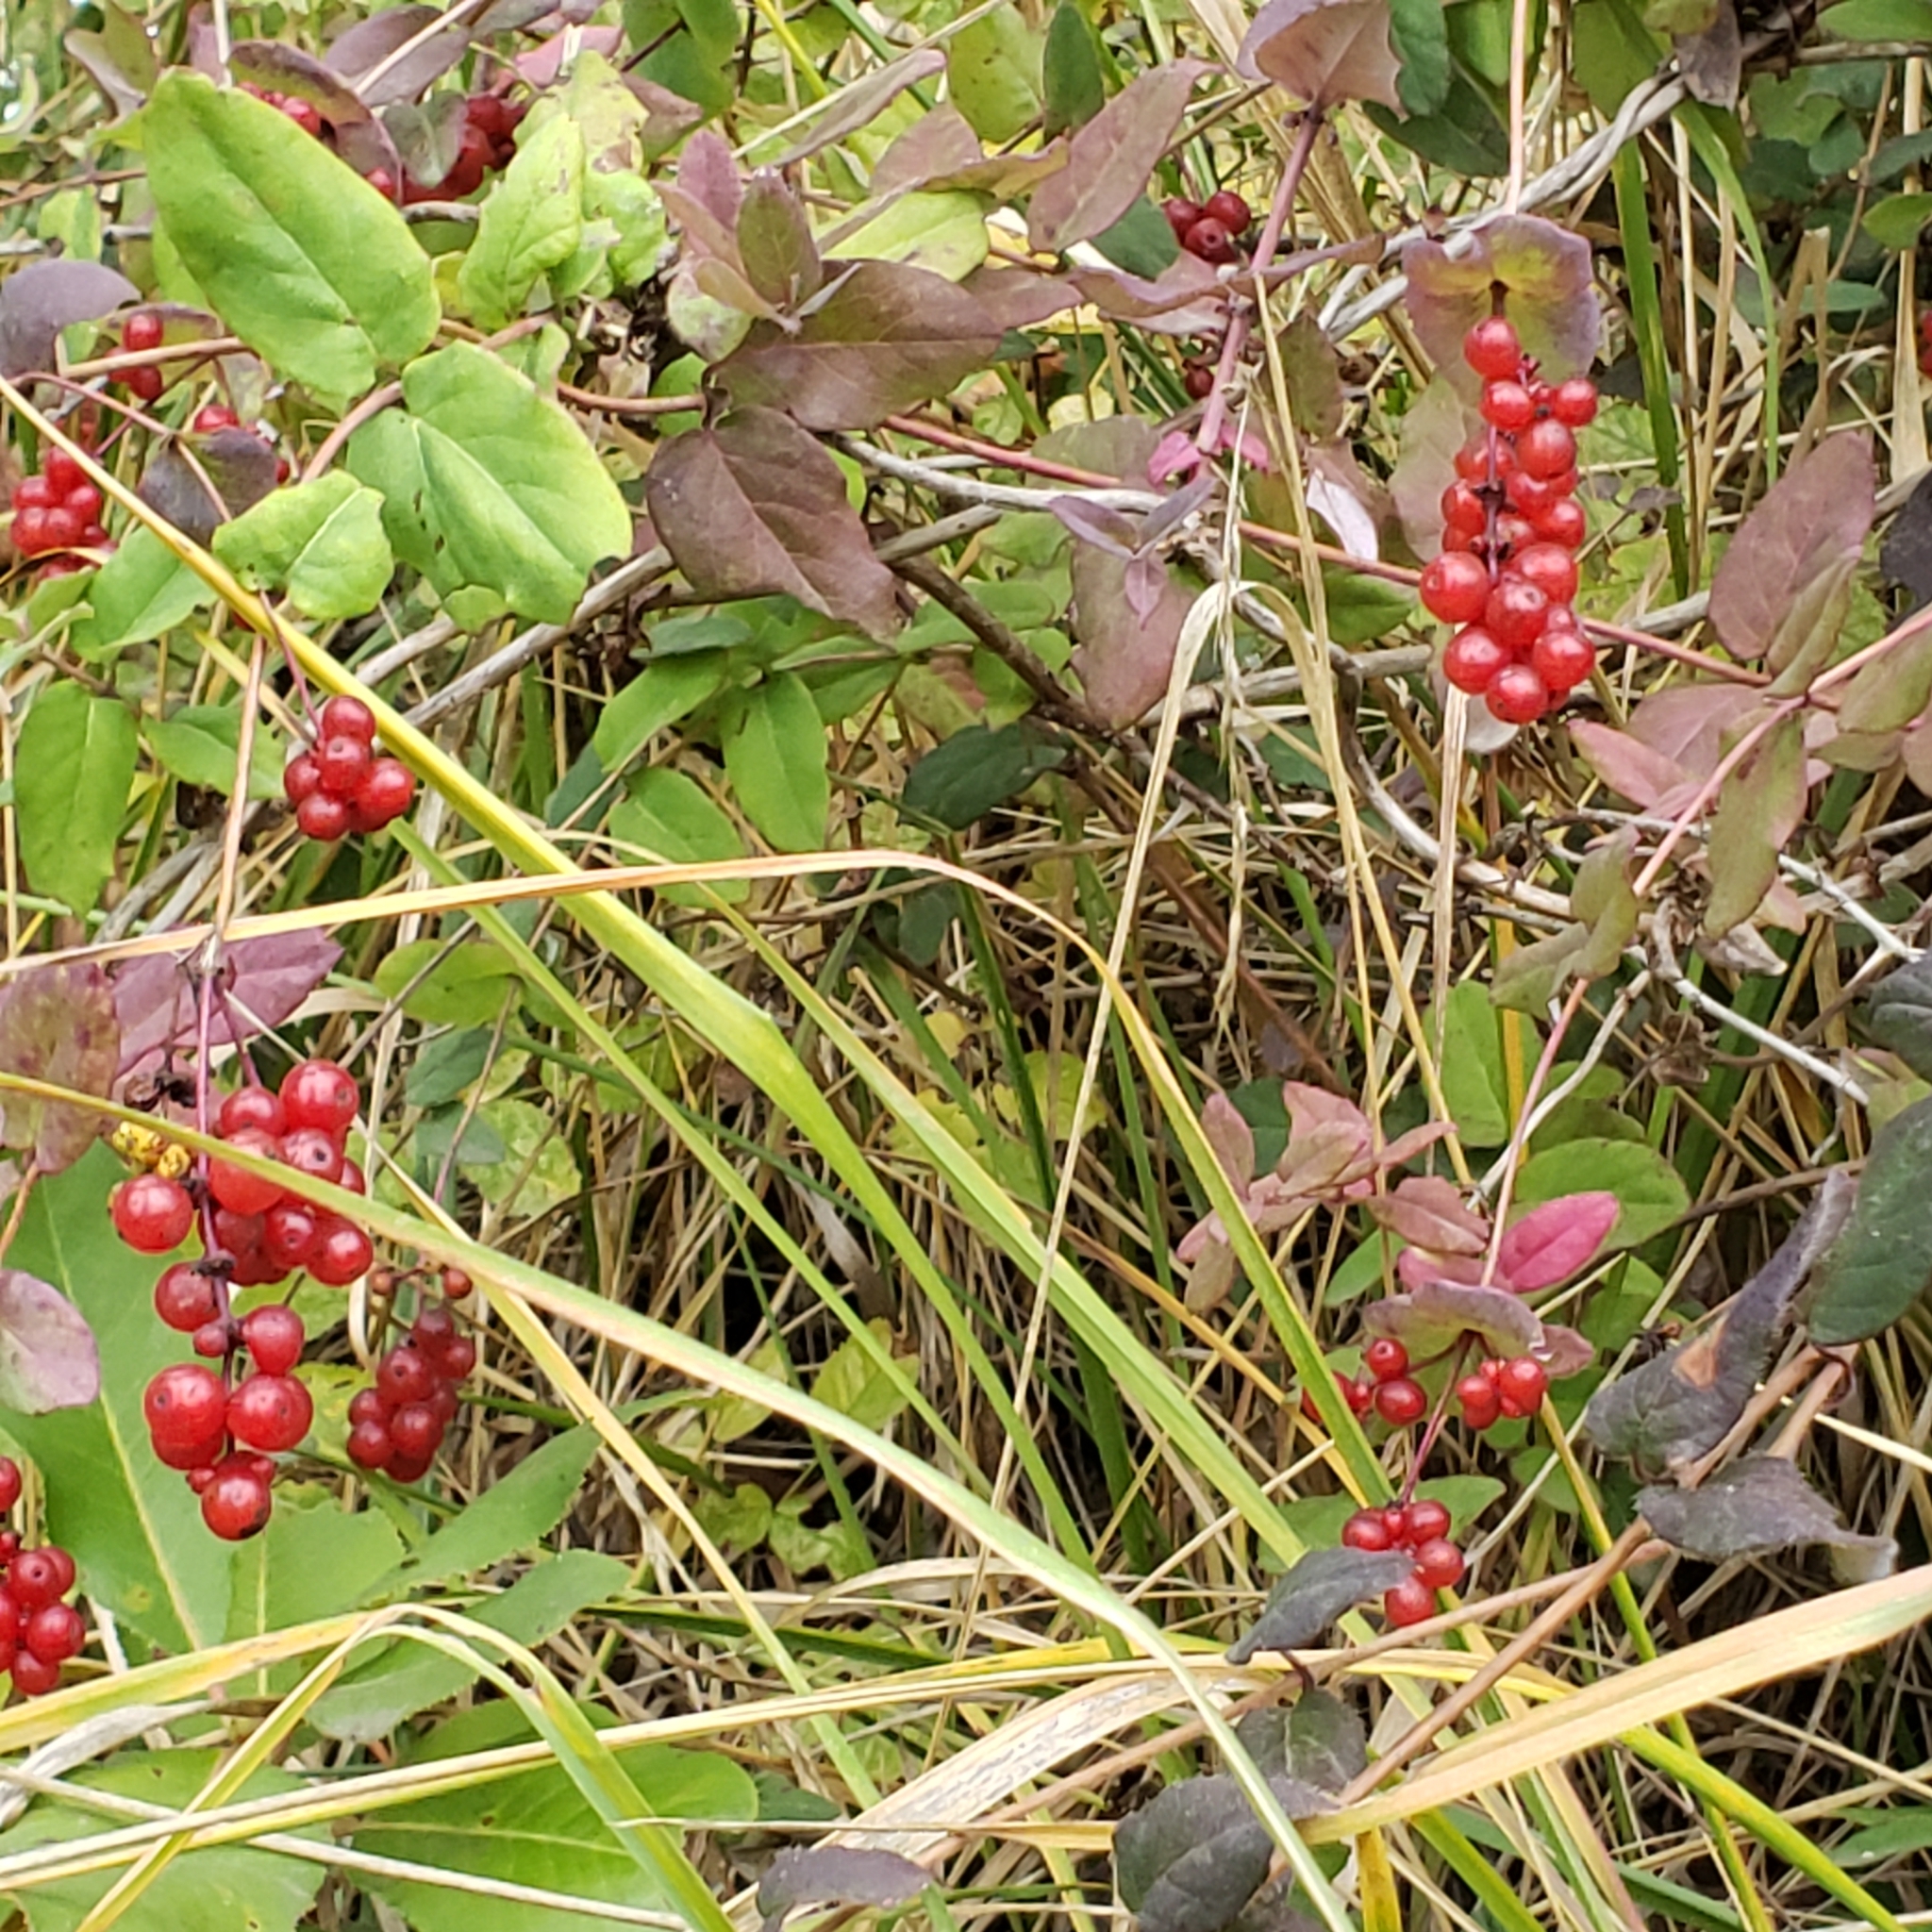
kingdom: Plantae
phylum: Tracheophyta
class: Magnoliopsida
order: Dipsacales
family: Caprifoliaceae
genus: Lonicera
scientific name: Lonicera hispidula
